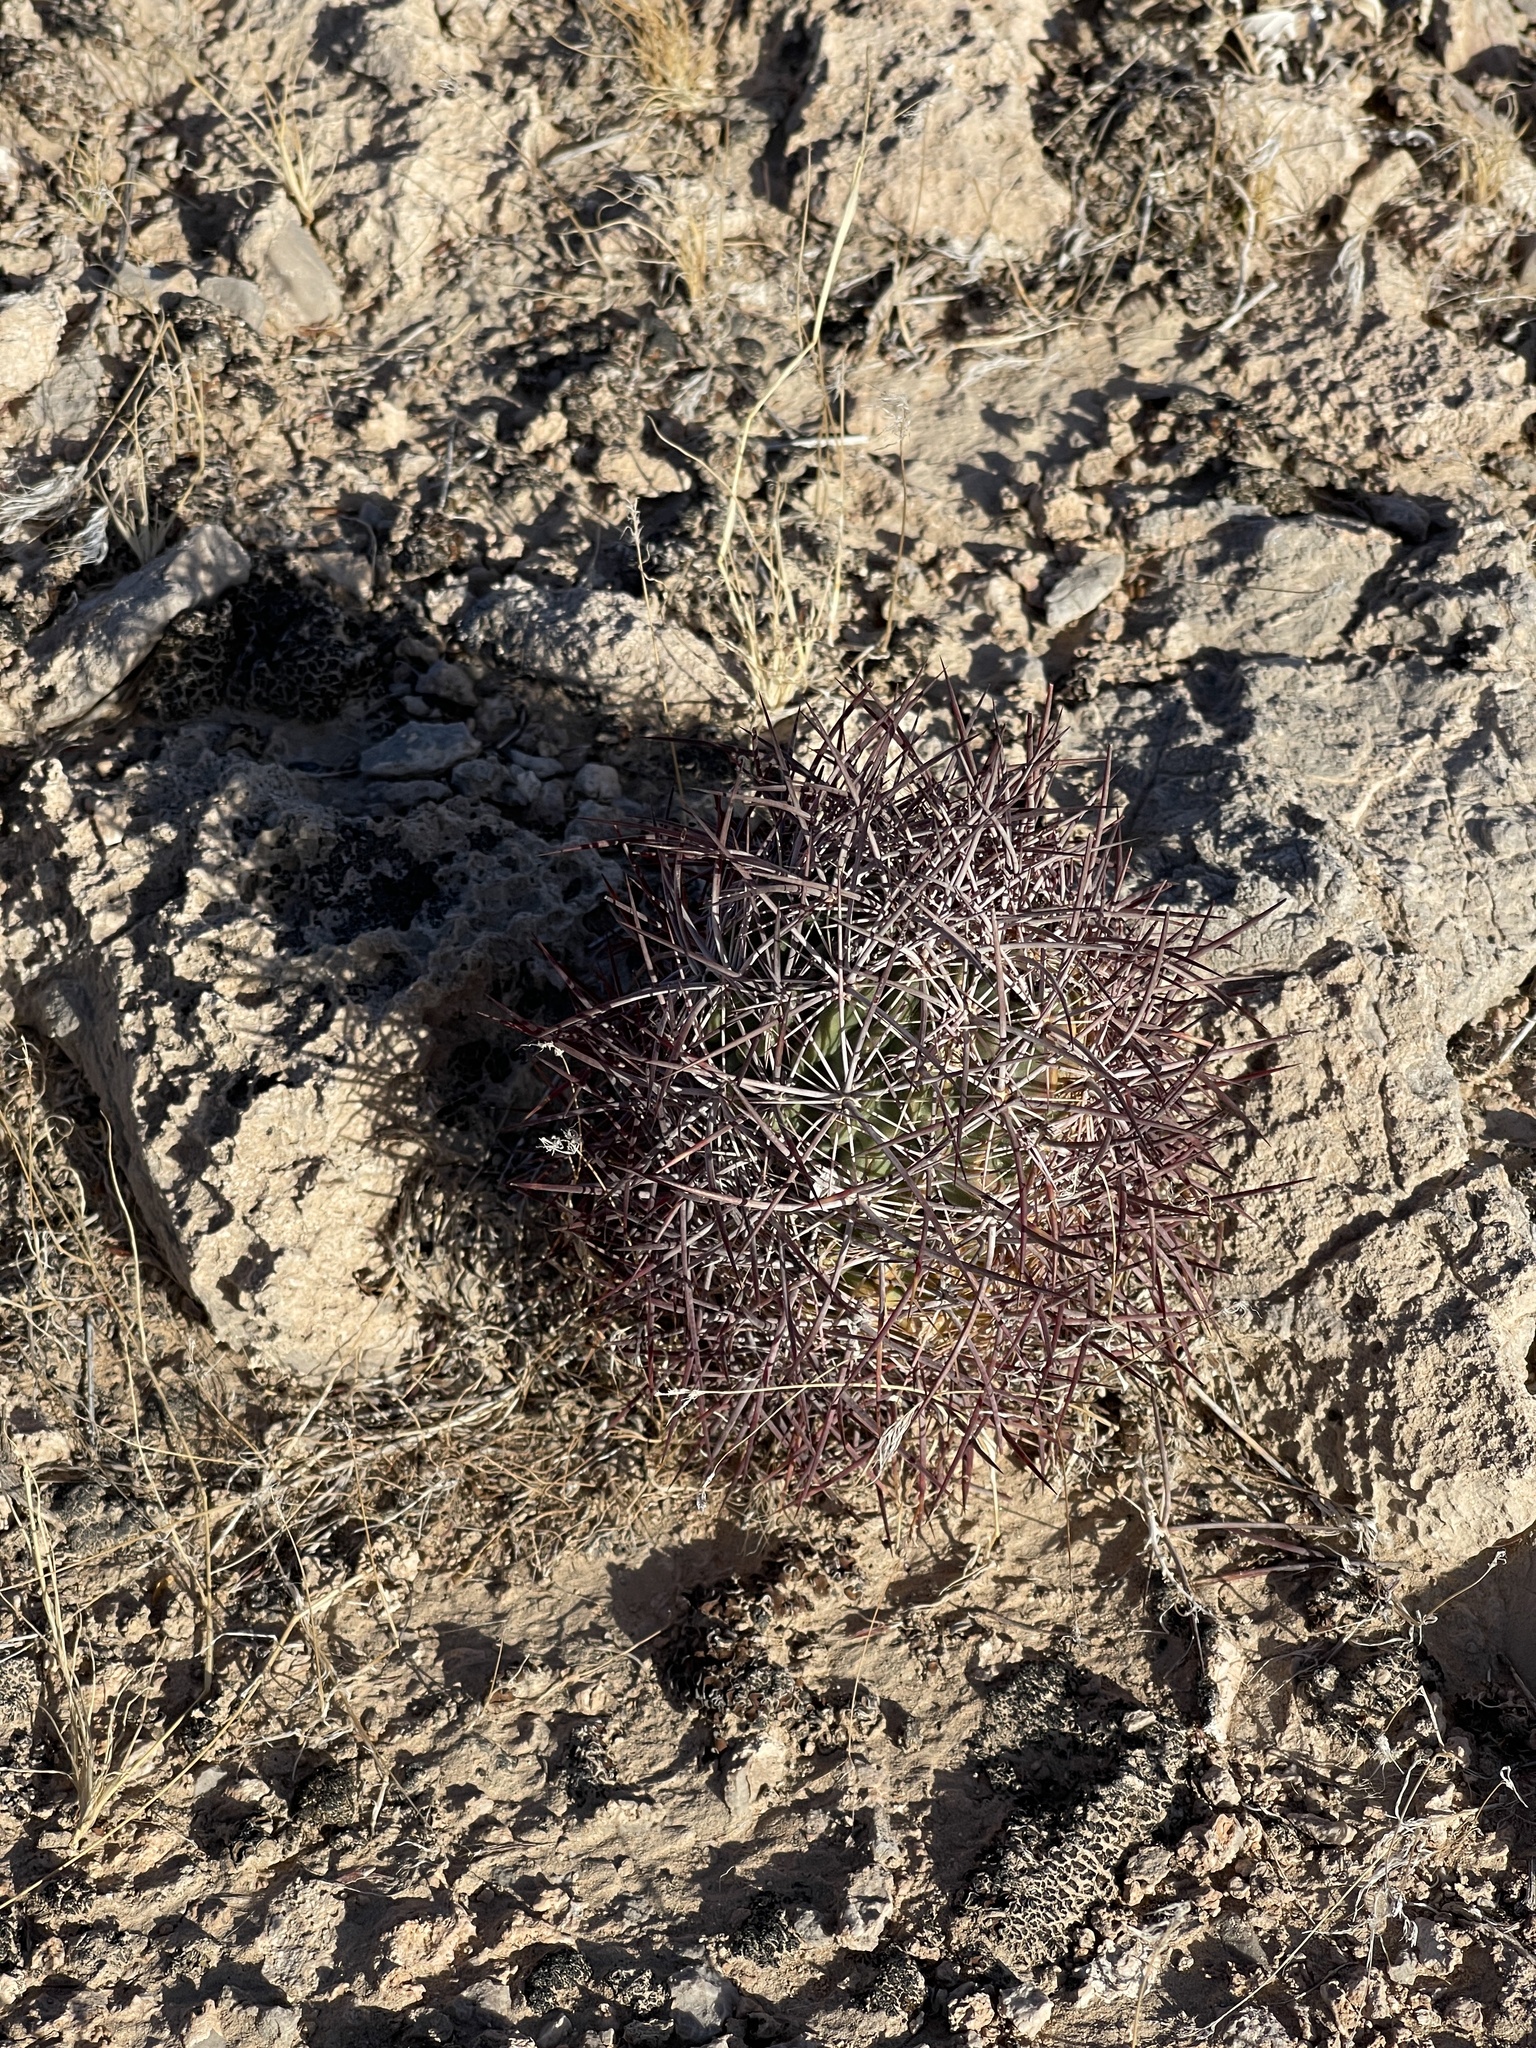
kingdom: Plantae
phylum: Tracheophyta
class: Magnoliopsida
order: Caryophyllales
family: Cactaceae
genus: Sclerocactus
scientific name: Sclerocactus johnsonii
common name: Eight-spine fishhook cactus
